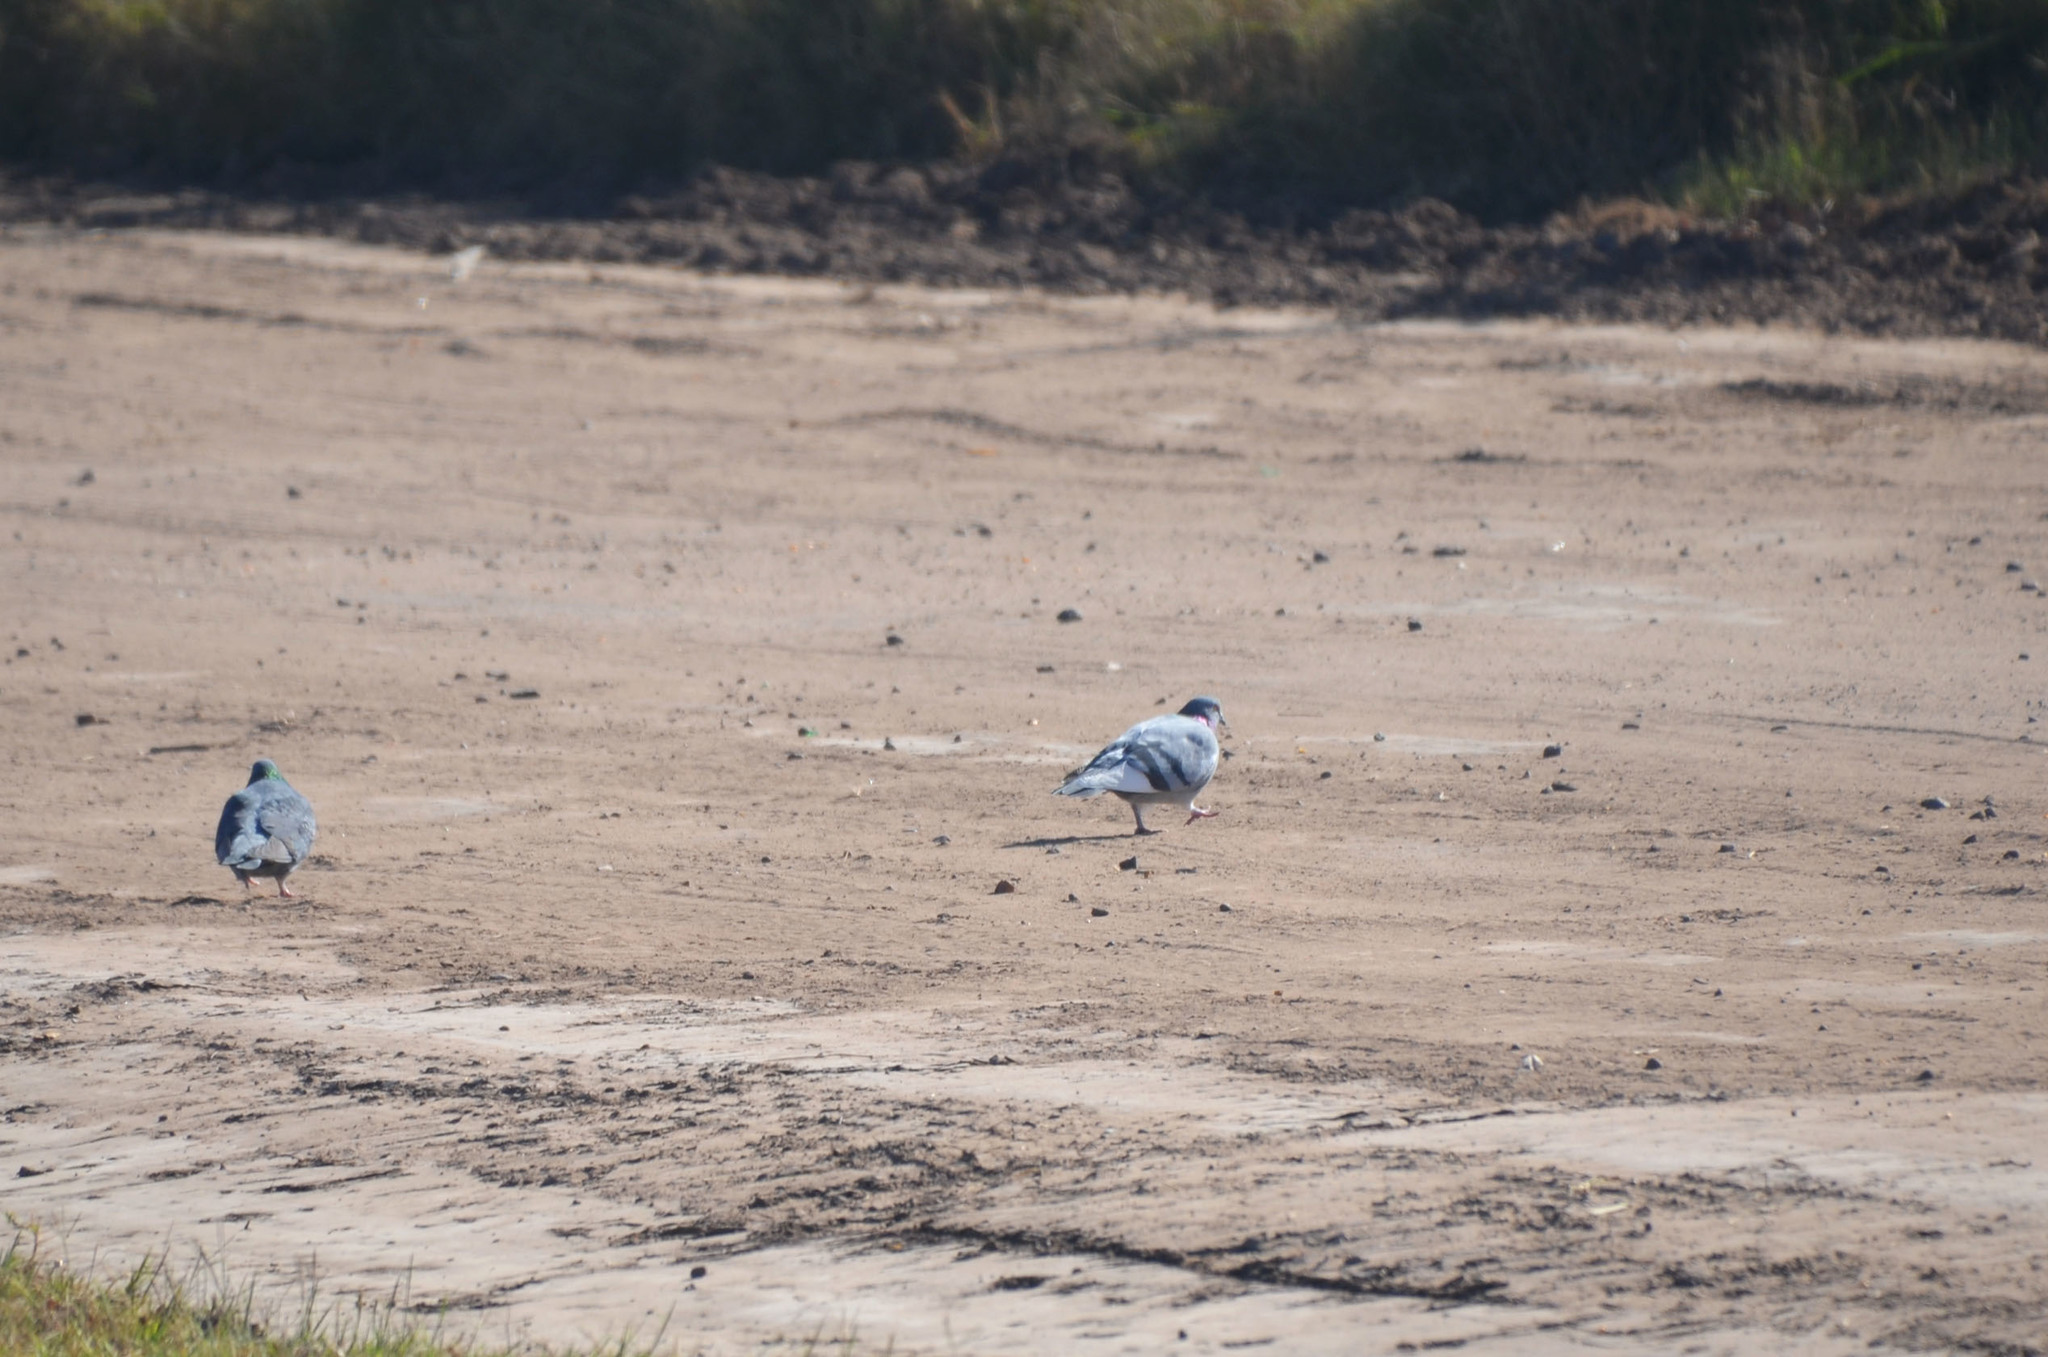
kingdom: Animalia
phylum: Chordata
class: Aves
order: Columbiformes
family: Columbidae
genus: Columba
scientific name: Columba livia
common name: Rock pigeon
